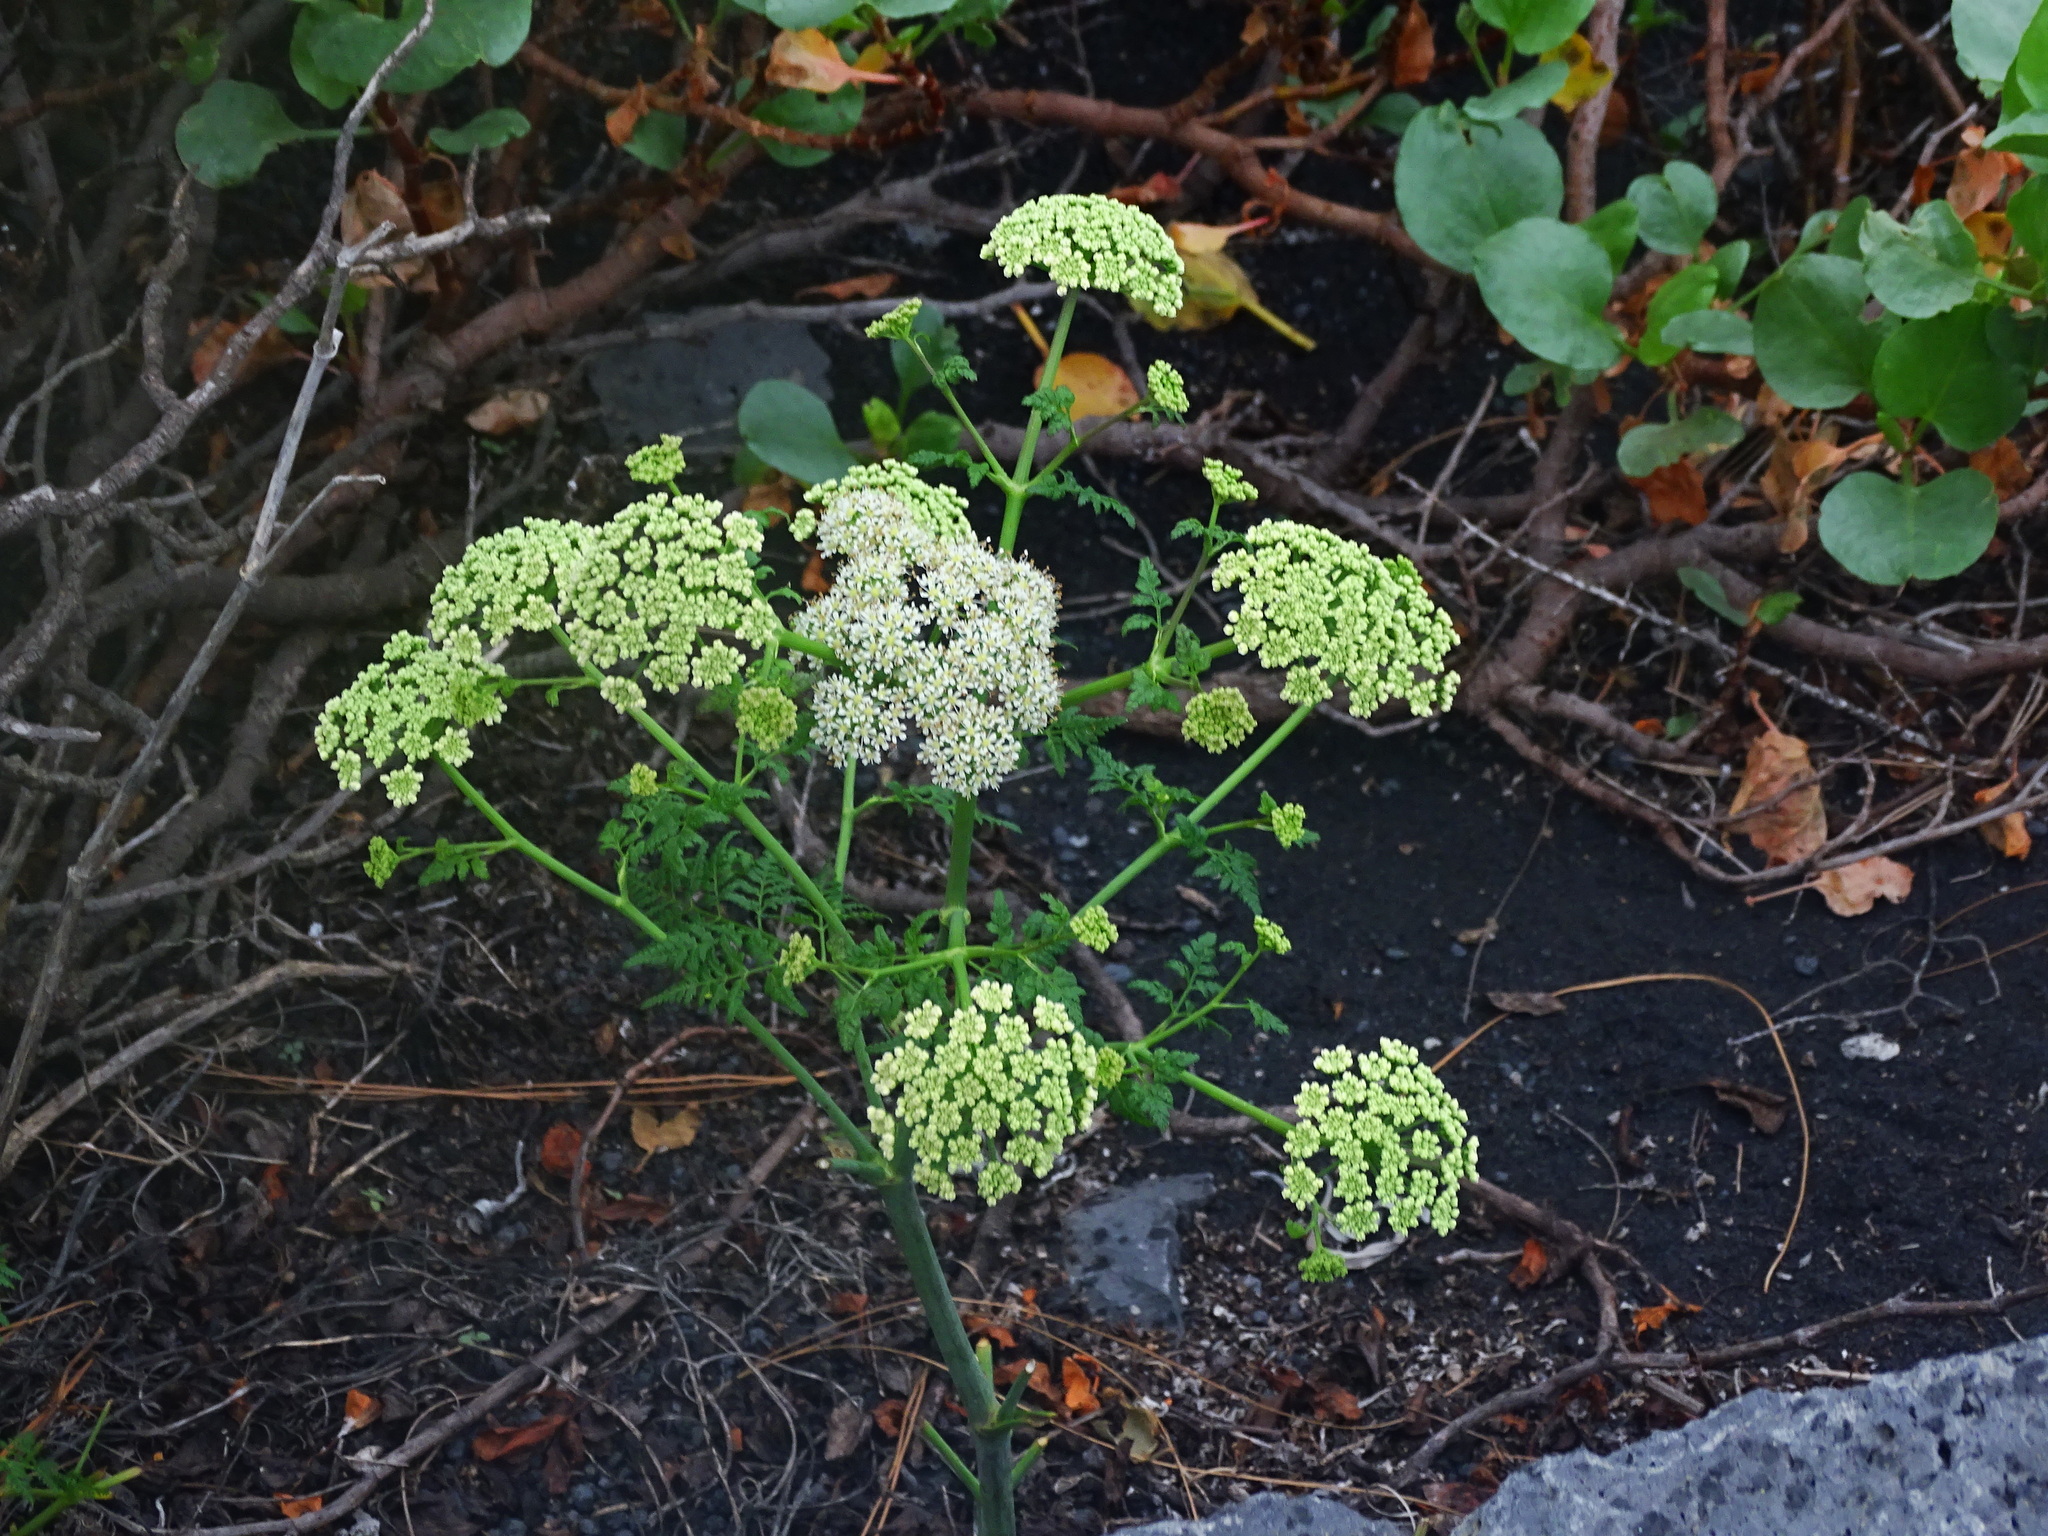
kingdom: Plantae
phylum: Tracheophyta
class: Magnoliopsida
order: Apiales
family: Apiaceae
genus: Todaroa
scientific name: Todaroa aurea
